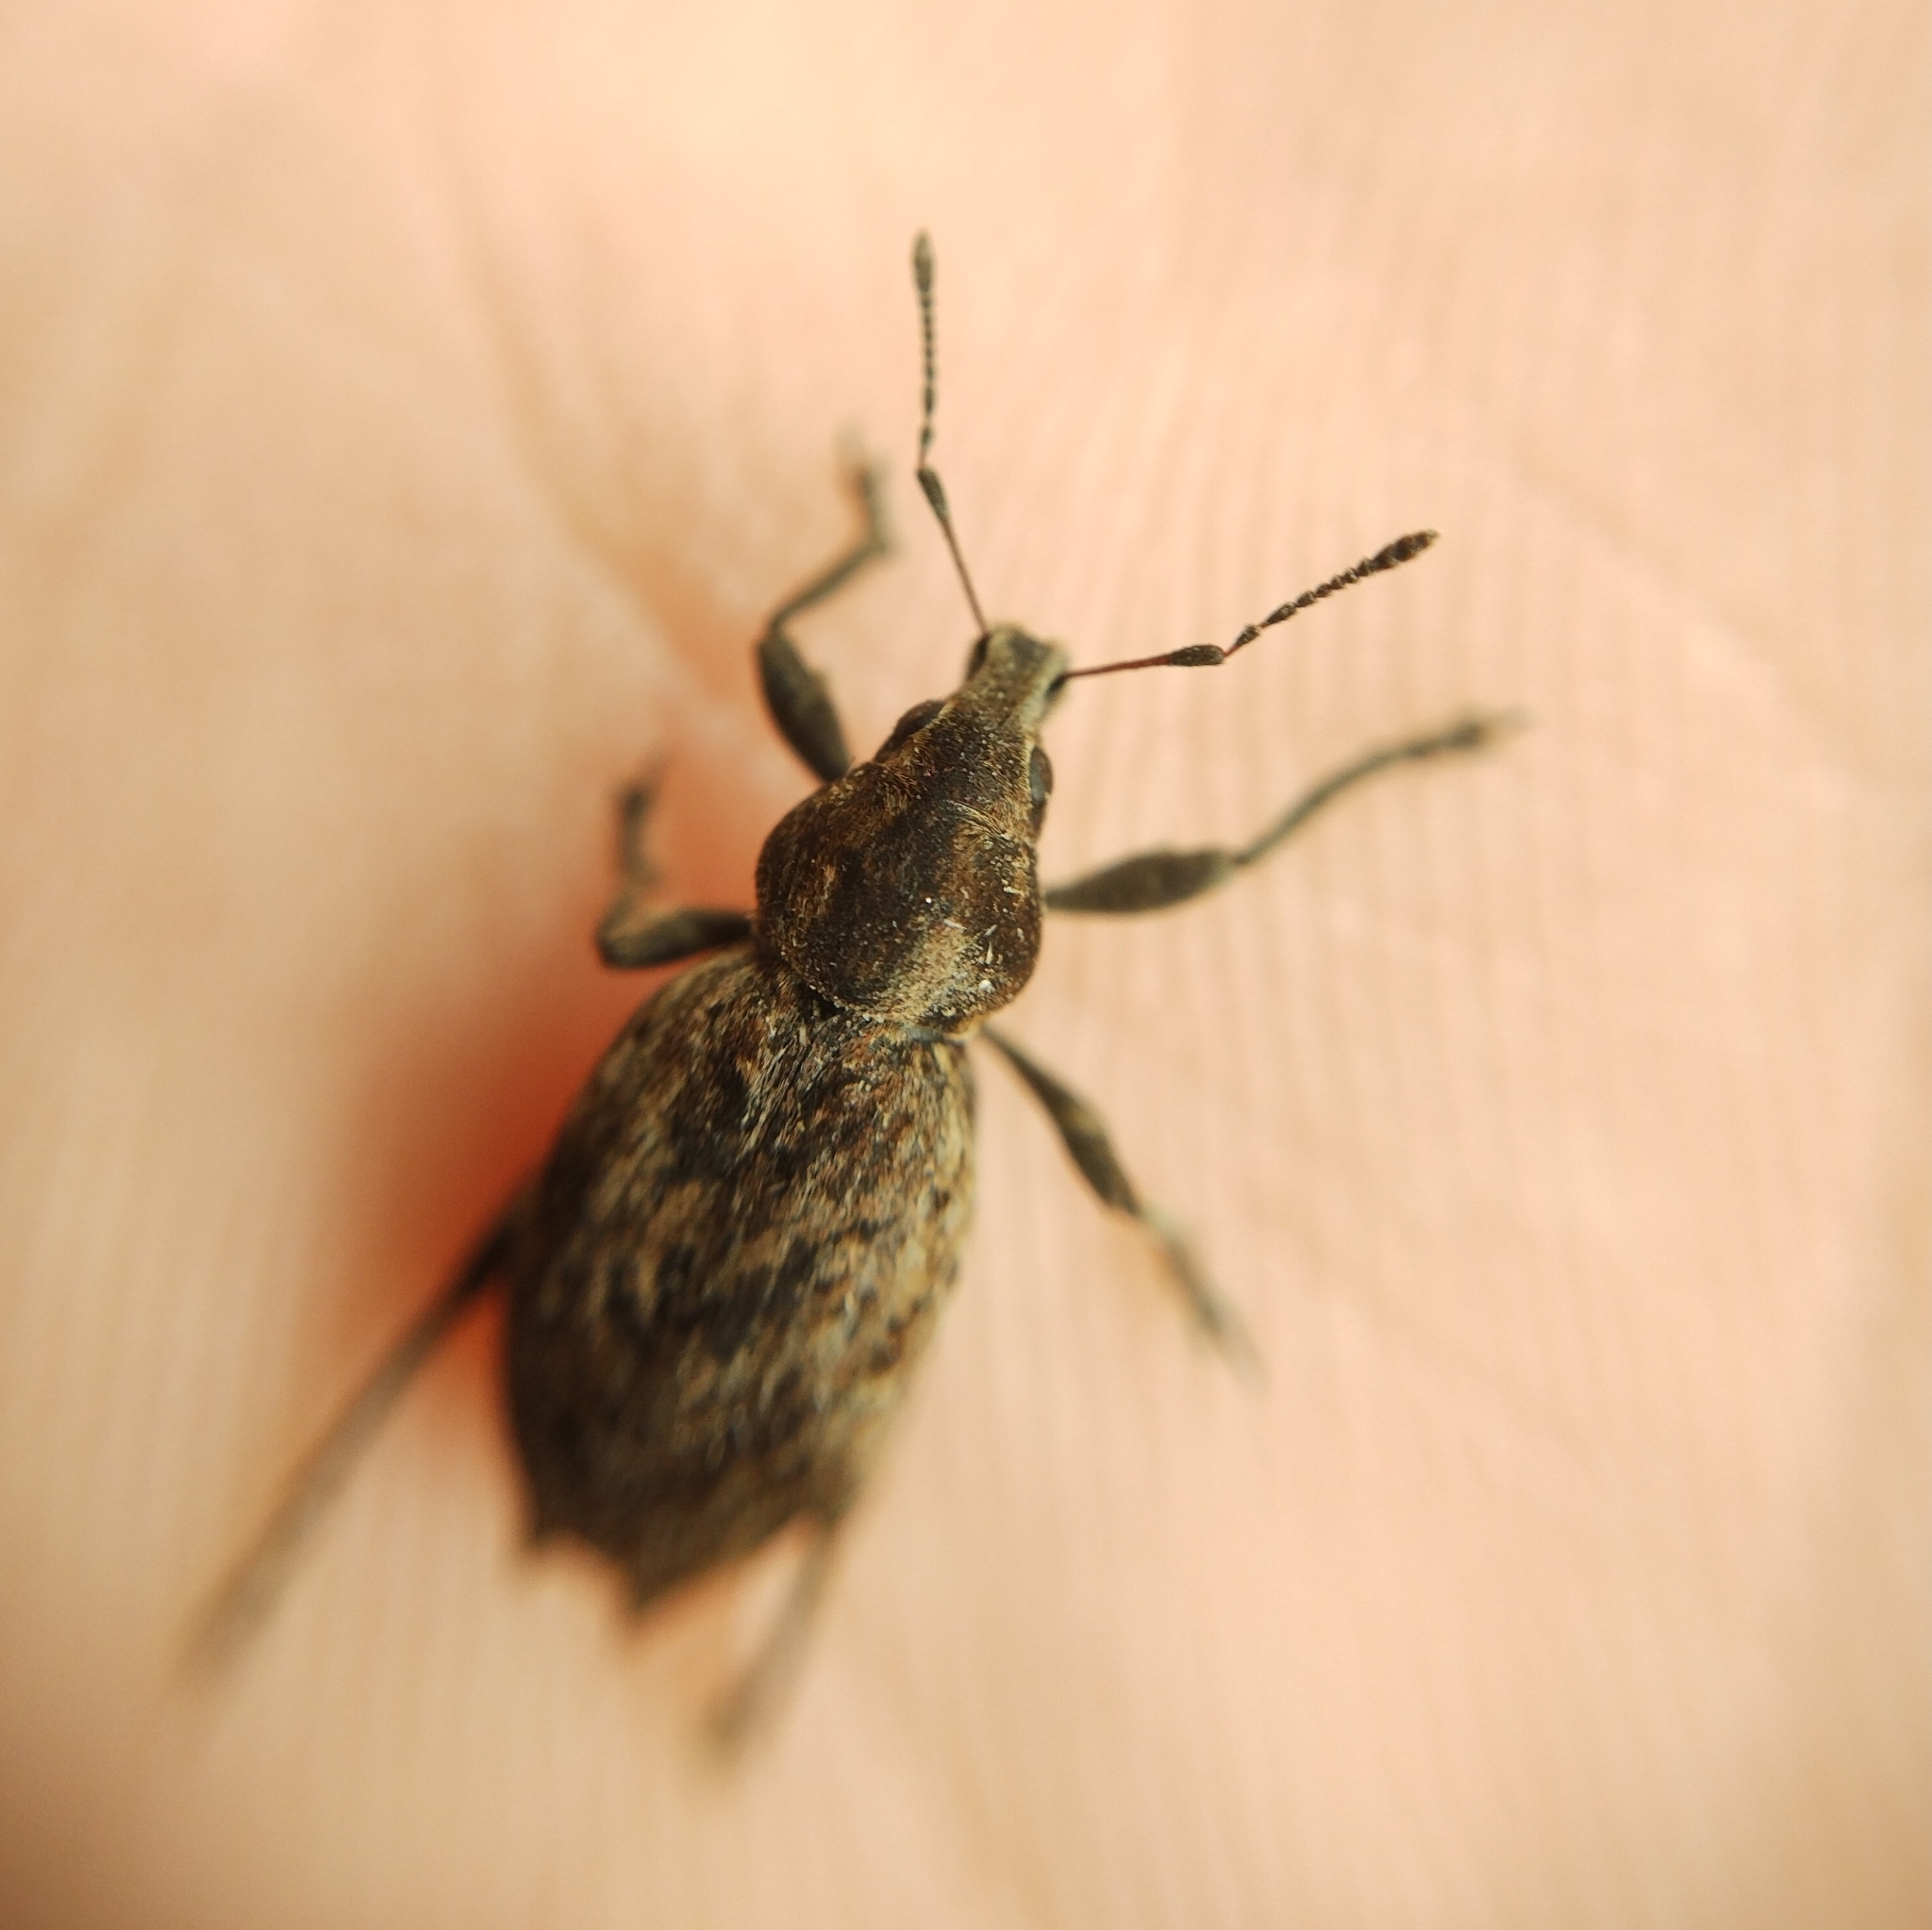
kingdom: Animalia
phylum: Arthropoda
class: Insecta
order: Coleoptera
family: Curculionidae
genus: Elytrodon
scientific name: Elytrodon bidentatus
